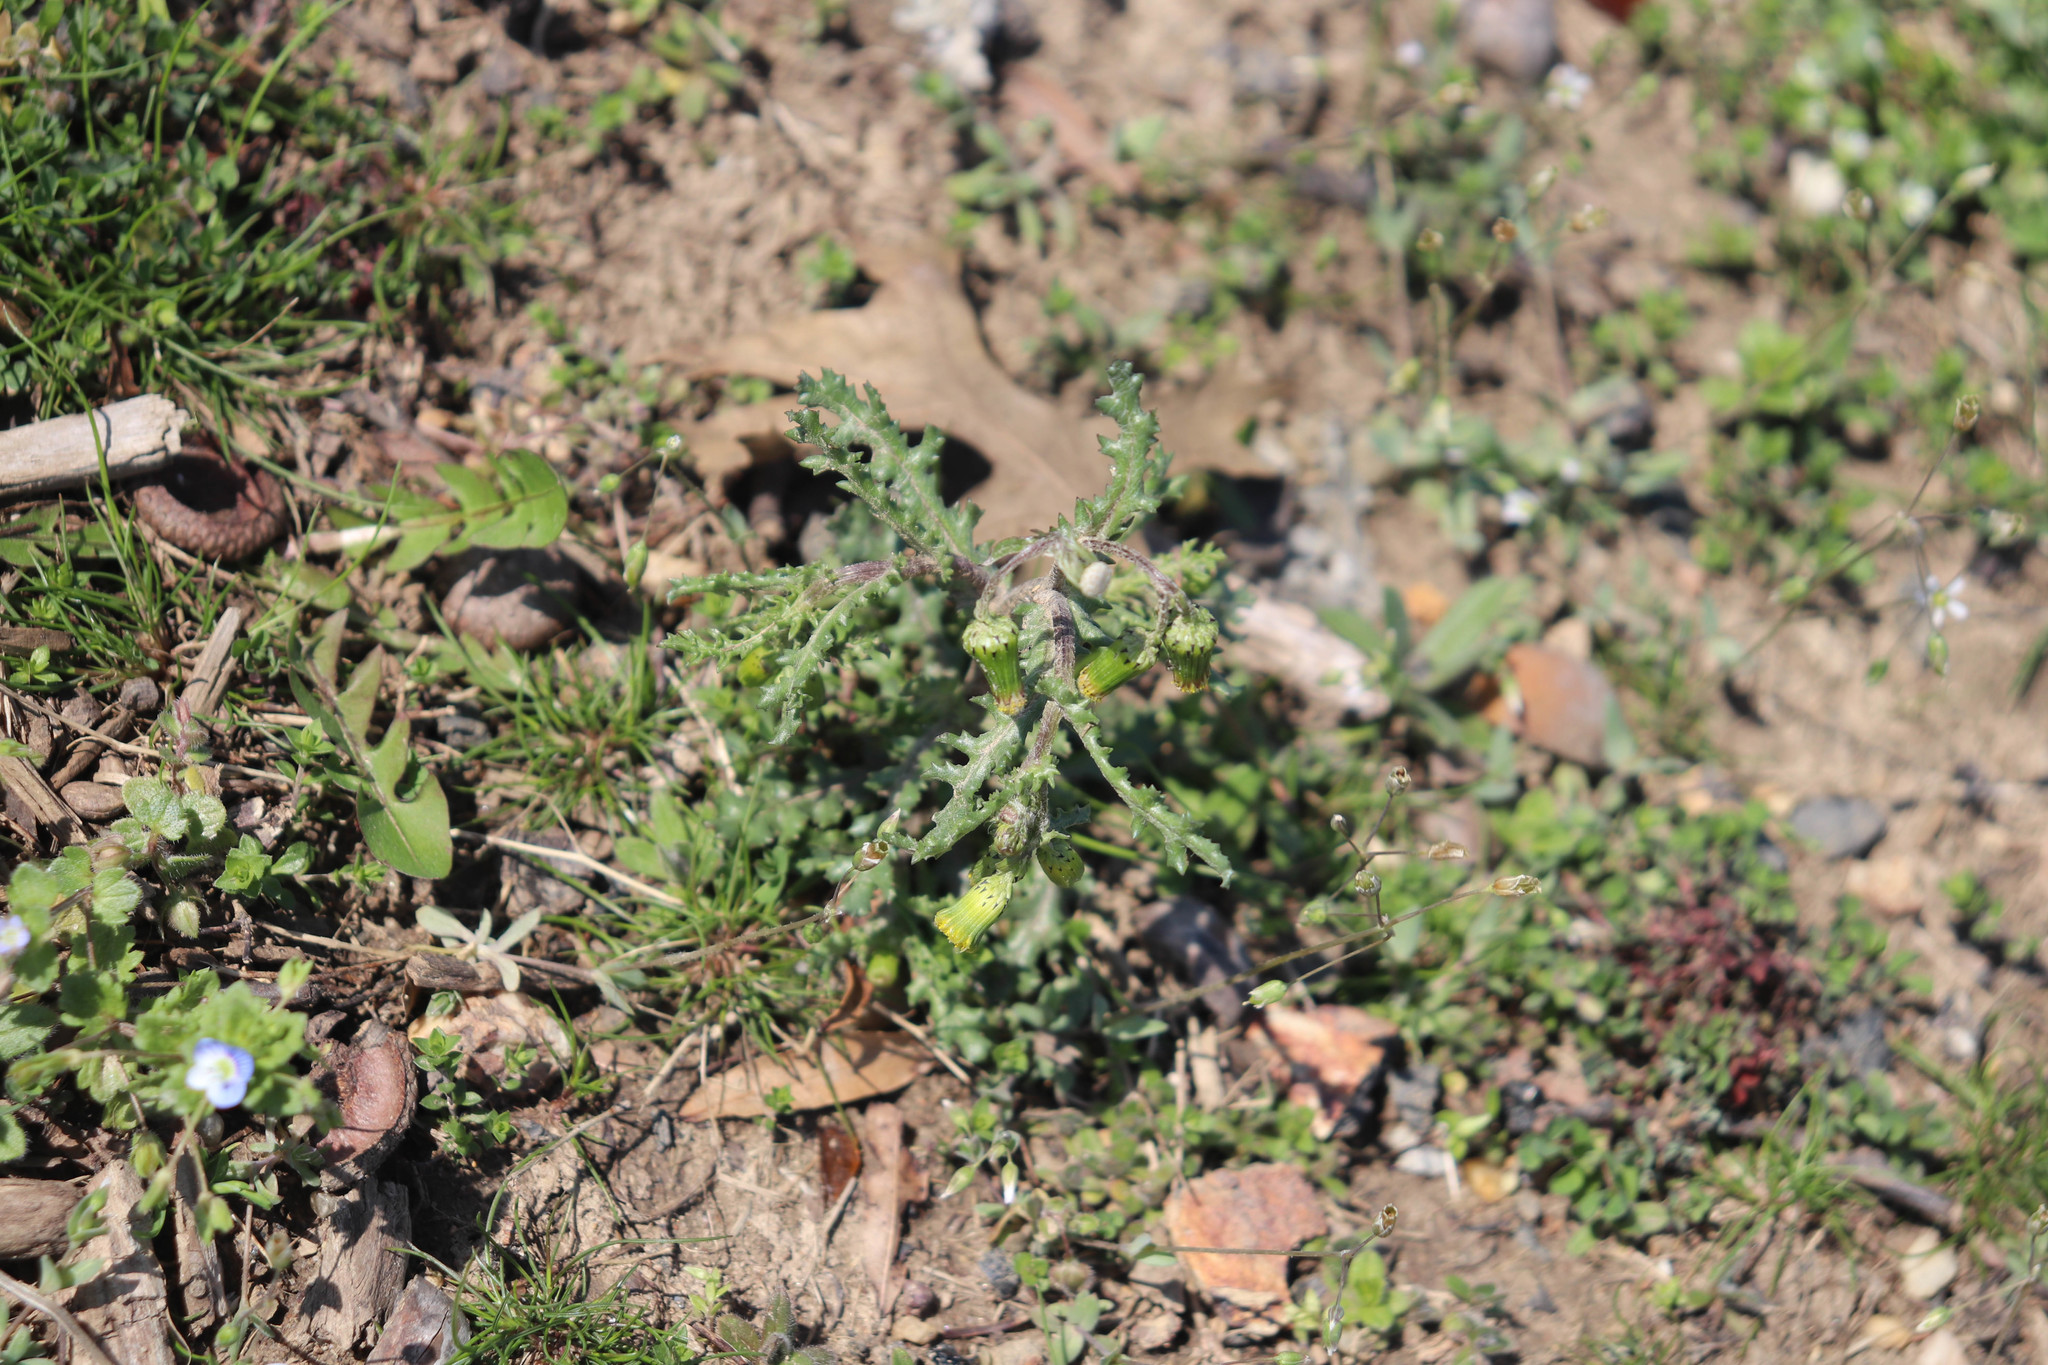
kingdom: Plantae
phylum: Tracheophyta
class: Magnoliopsida
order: Asterales
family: Asteraceae
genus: Senecio
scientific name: Senecio vulgaris
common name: Old-man-in-the-spring
